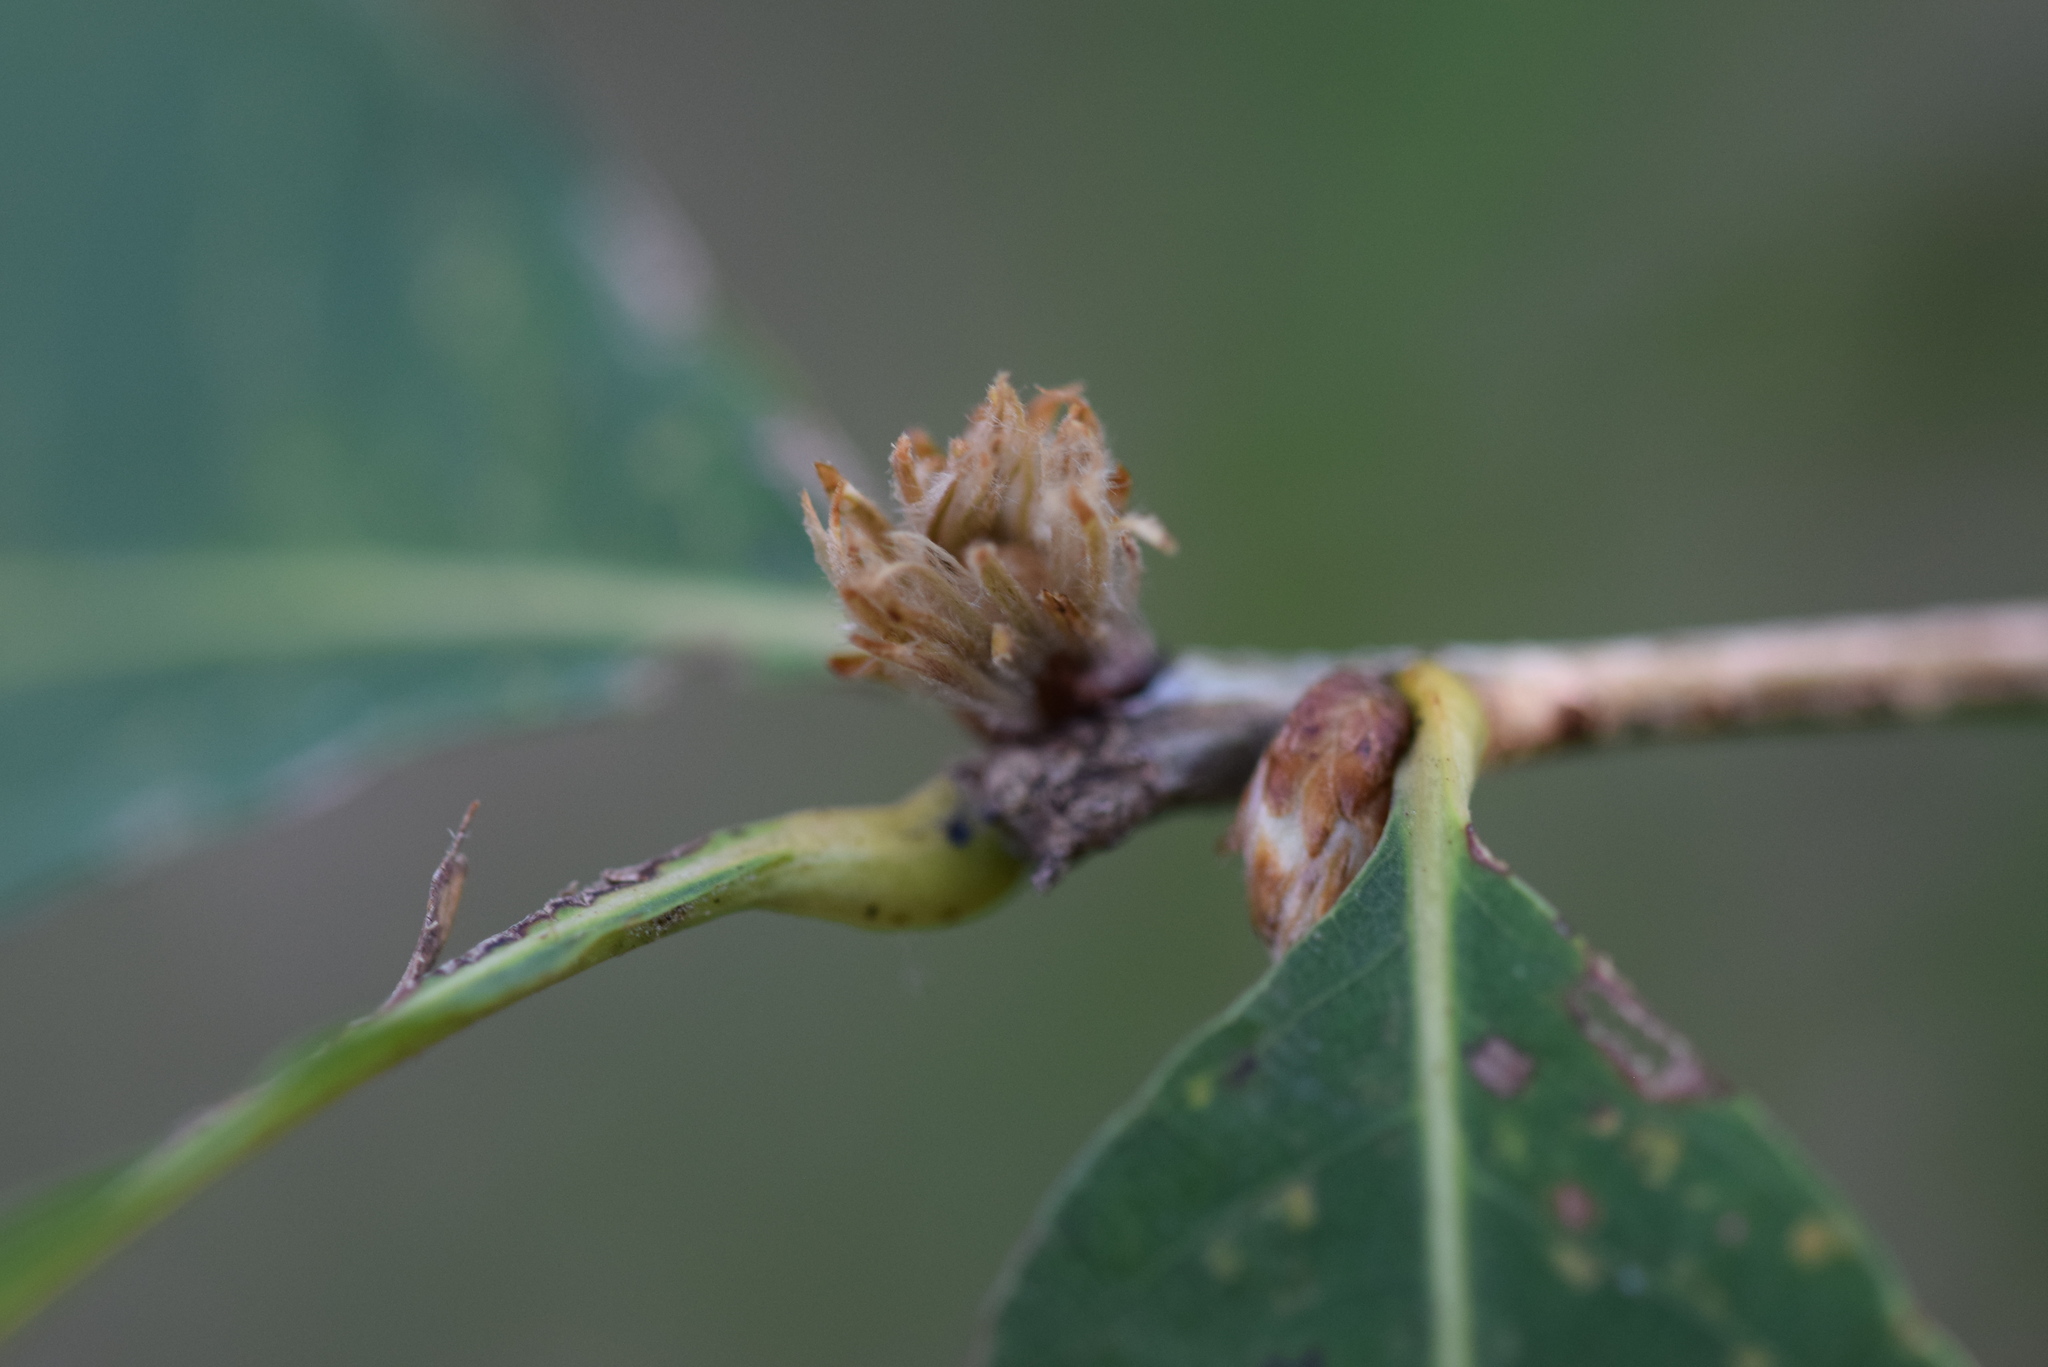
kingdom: Animalia
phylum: Arthropoda
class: Insecta
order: Hymenoptera
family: Cynipidae
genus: Andricus
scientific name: Andricus
